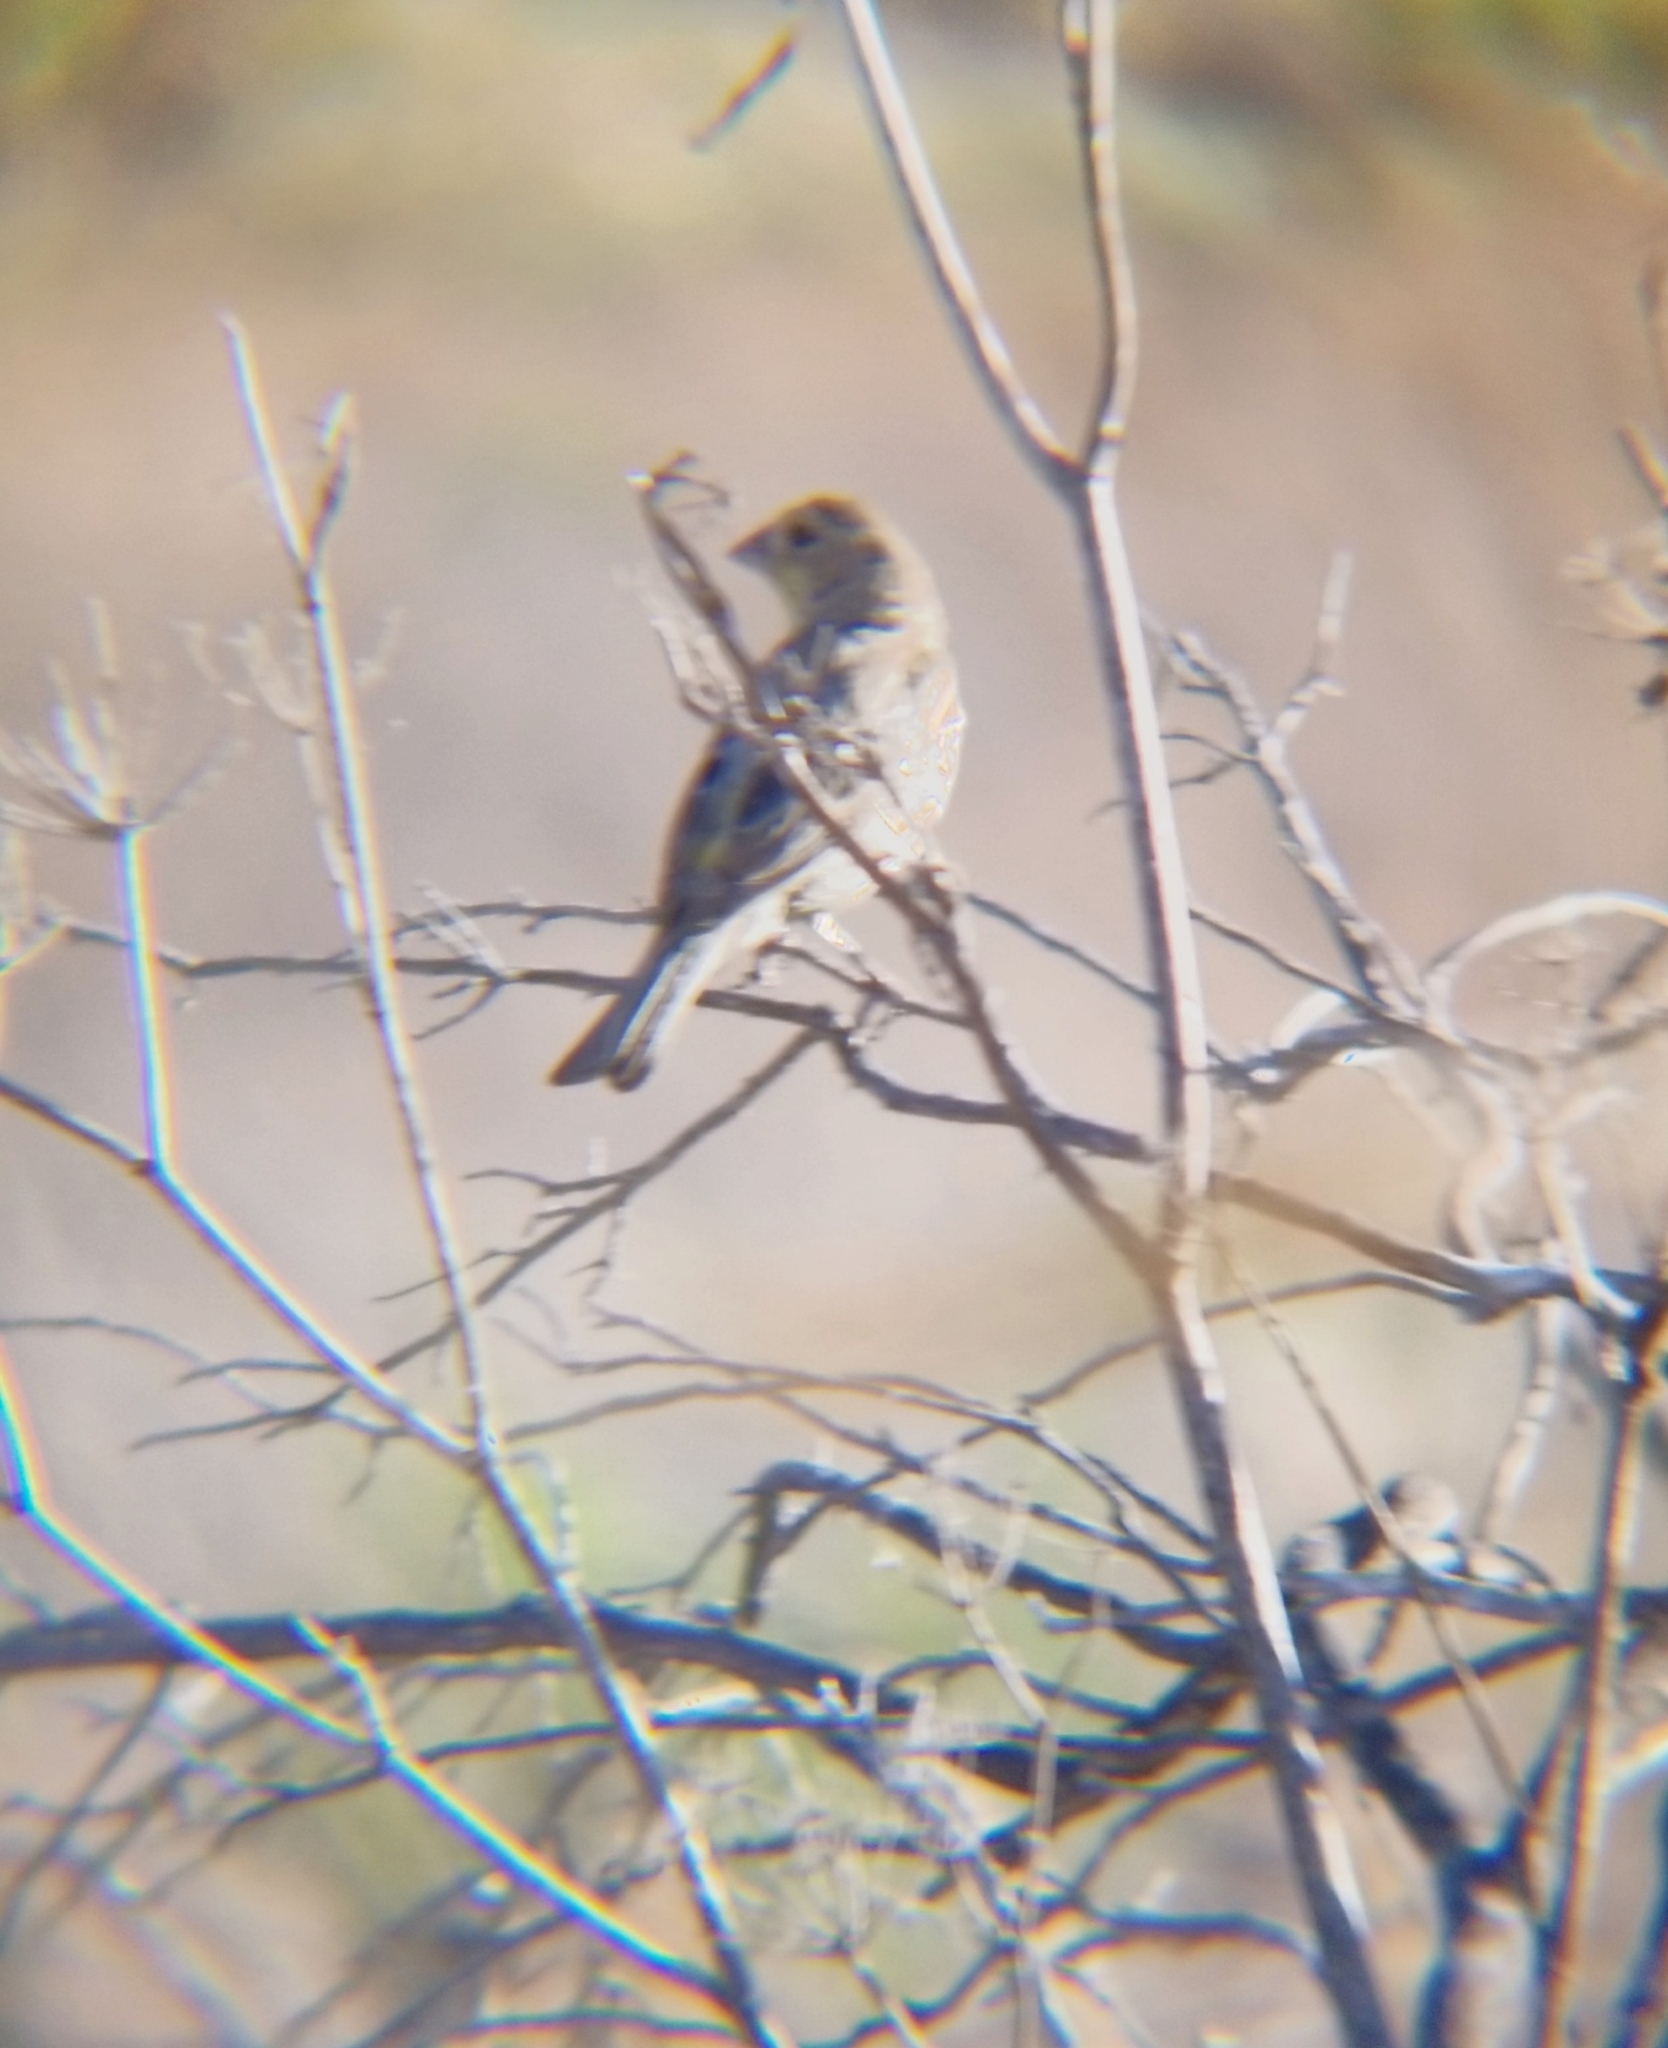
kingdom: Animalia
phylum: Chordata
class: Aves
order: Passeriformes
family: Fringillidae
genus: Haemorhous
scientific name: Haemorhous mexicanus
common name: House finch
